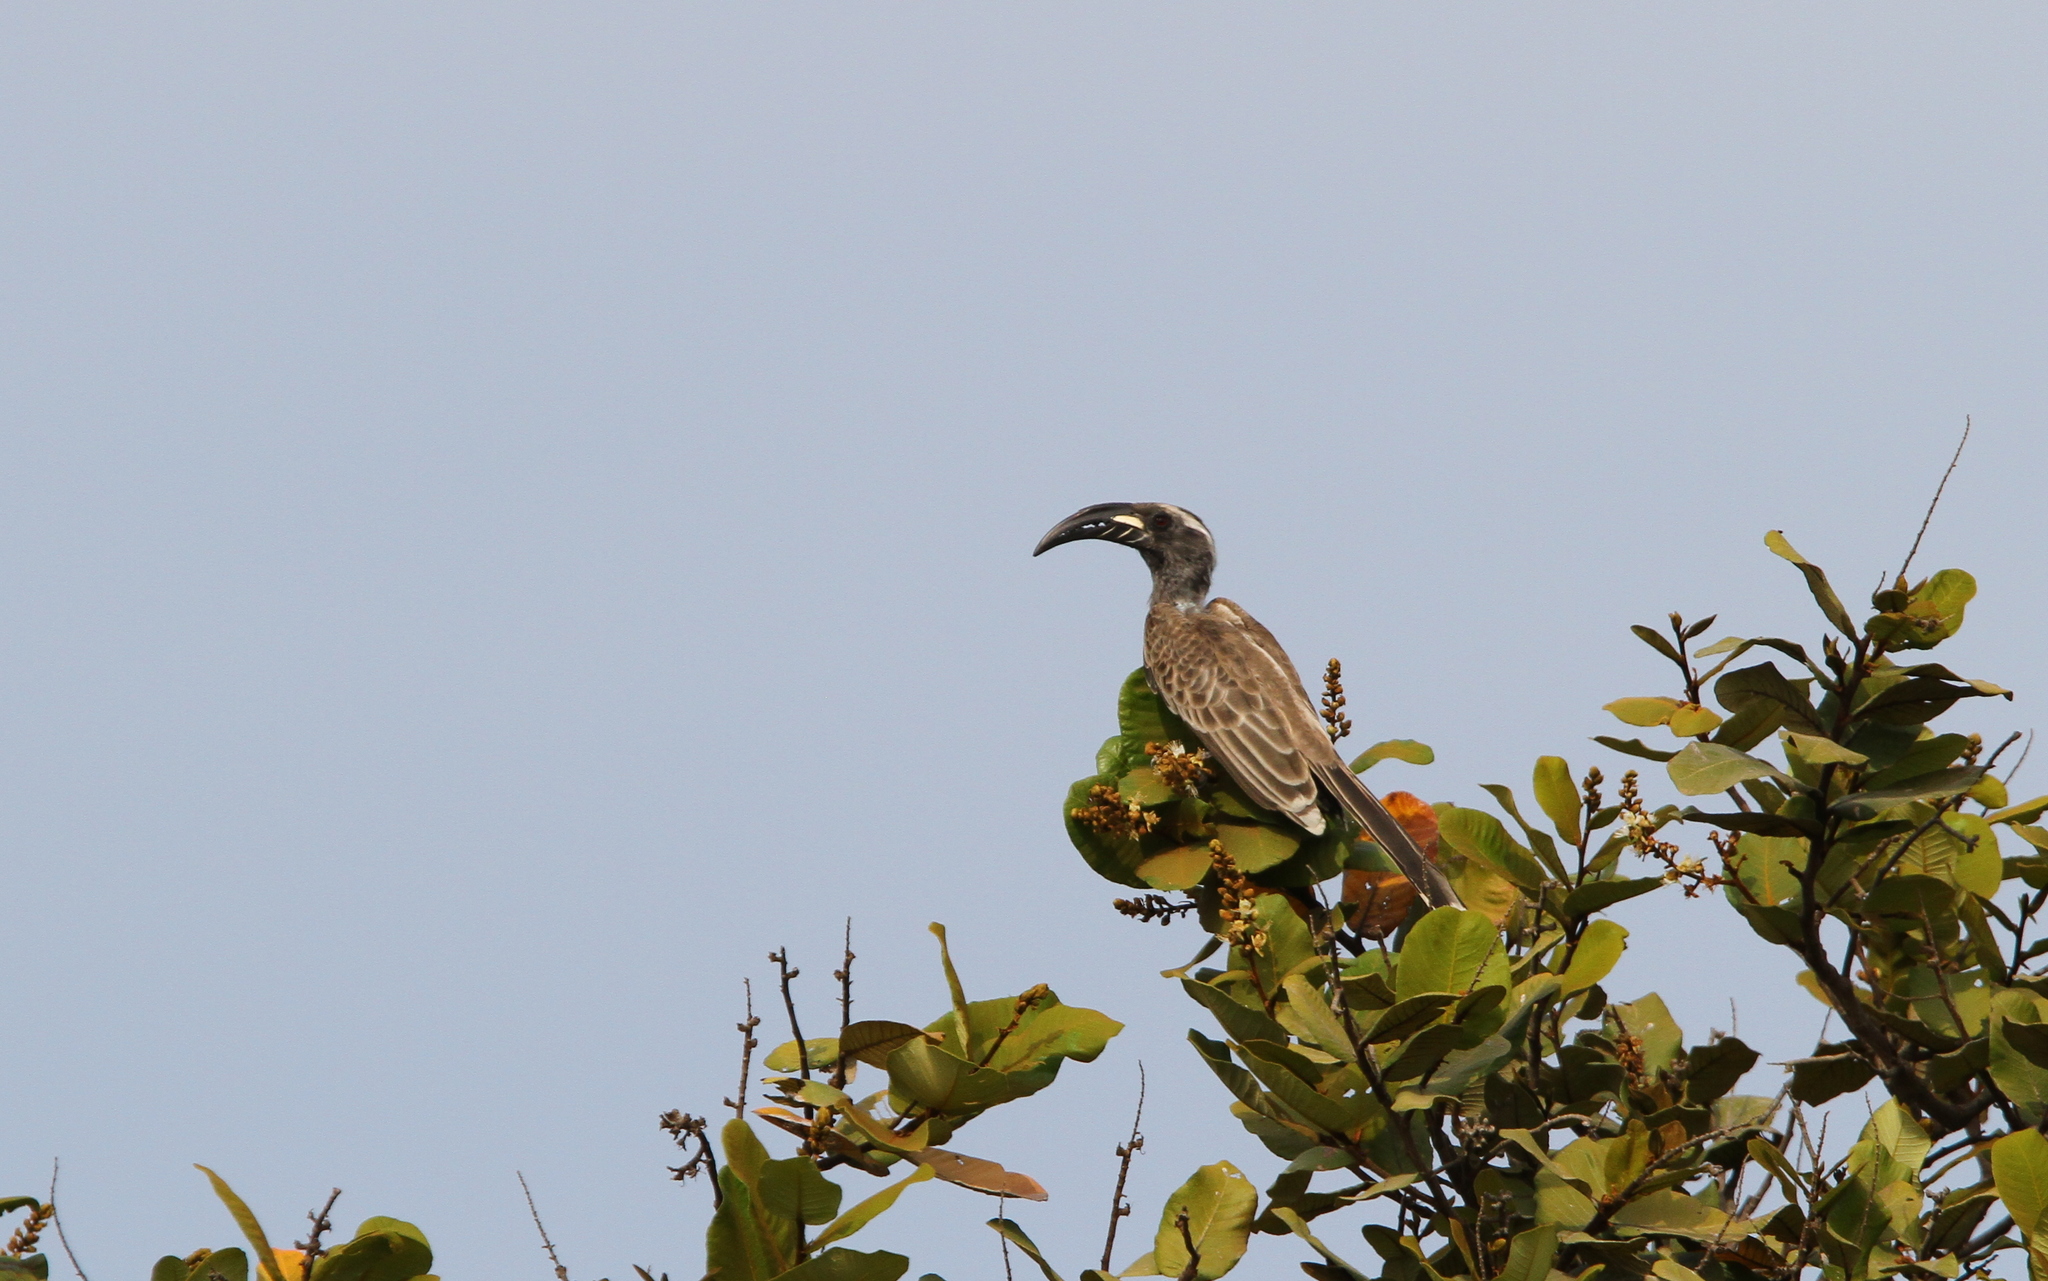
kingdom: Animalia
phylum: Chordata
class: Aves
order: Bucerotiformes
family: Bucerotidae
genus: Lophoceros
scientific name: Lophoceros nasutus
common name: African grey hornbill
